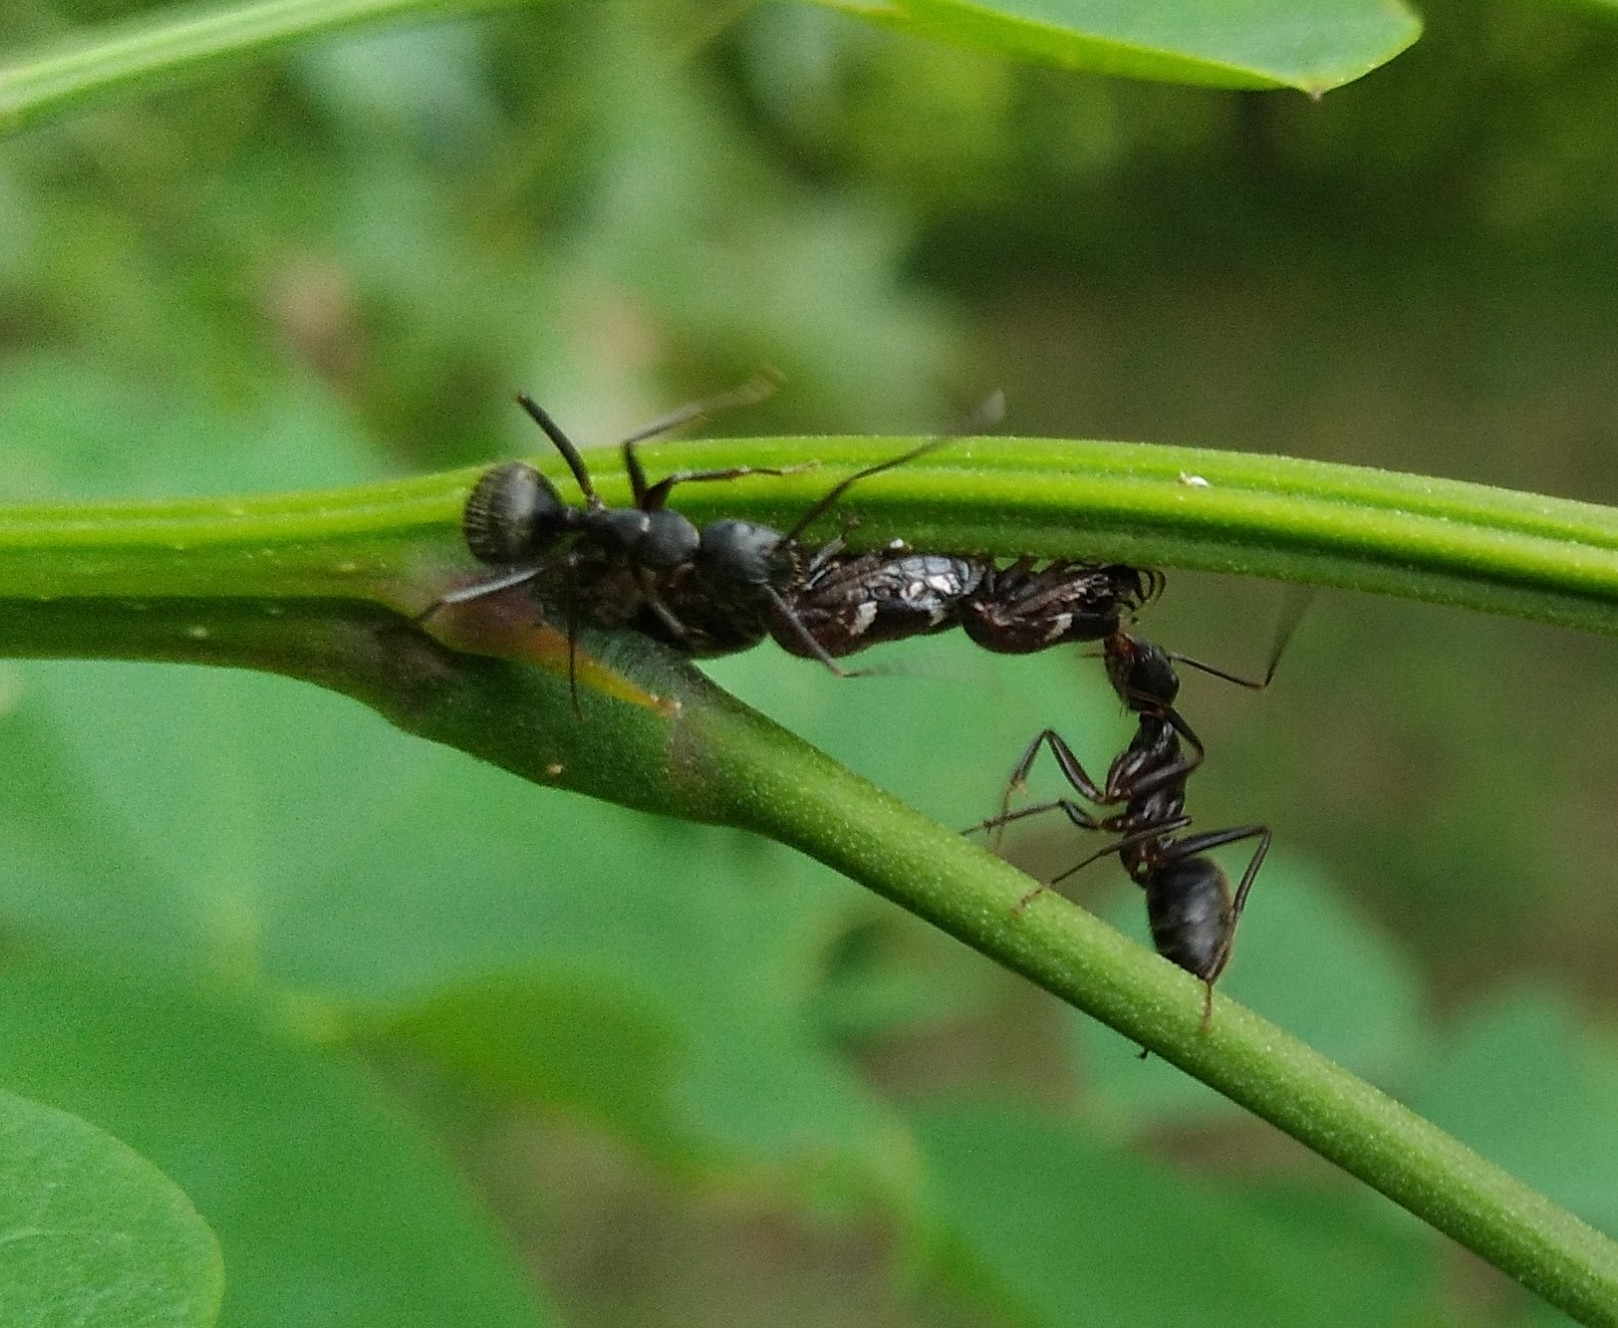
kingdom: Animalia
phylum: Arthropoda
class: Insecta
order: Hemiptera
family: Membracidae
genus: Vanduzea
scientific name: Vanduzea arquata
